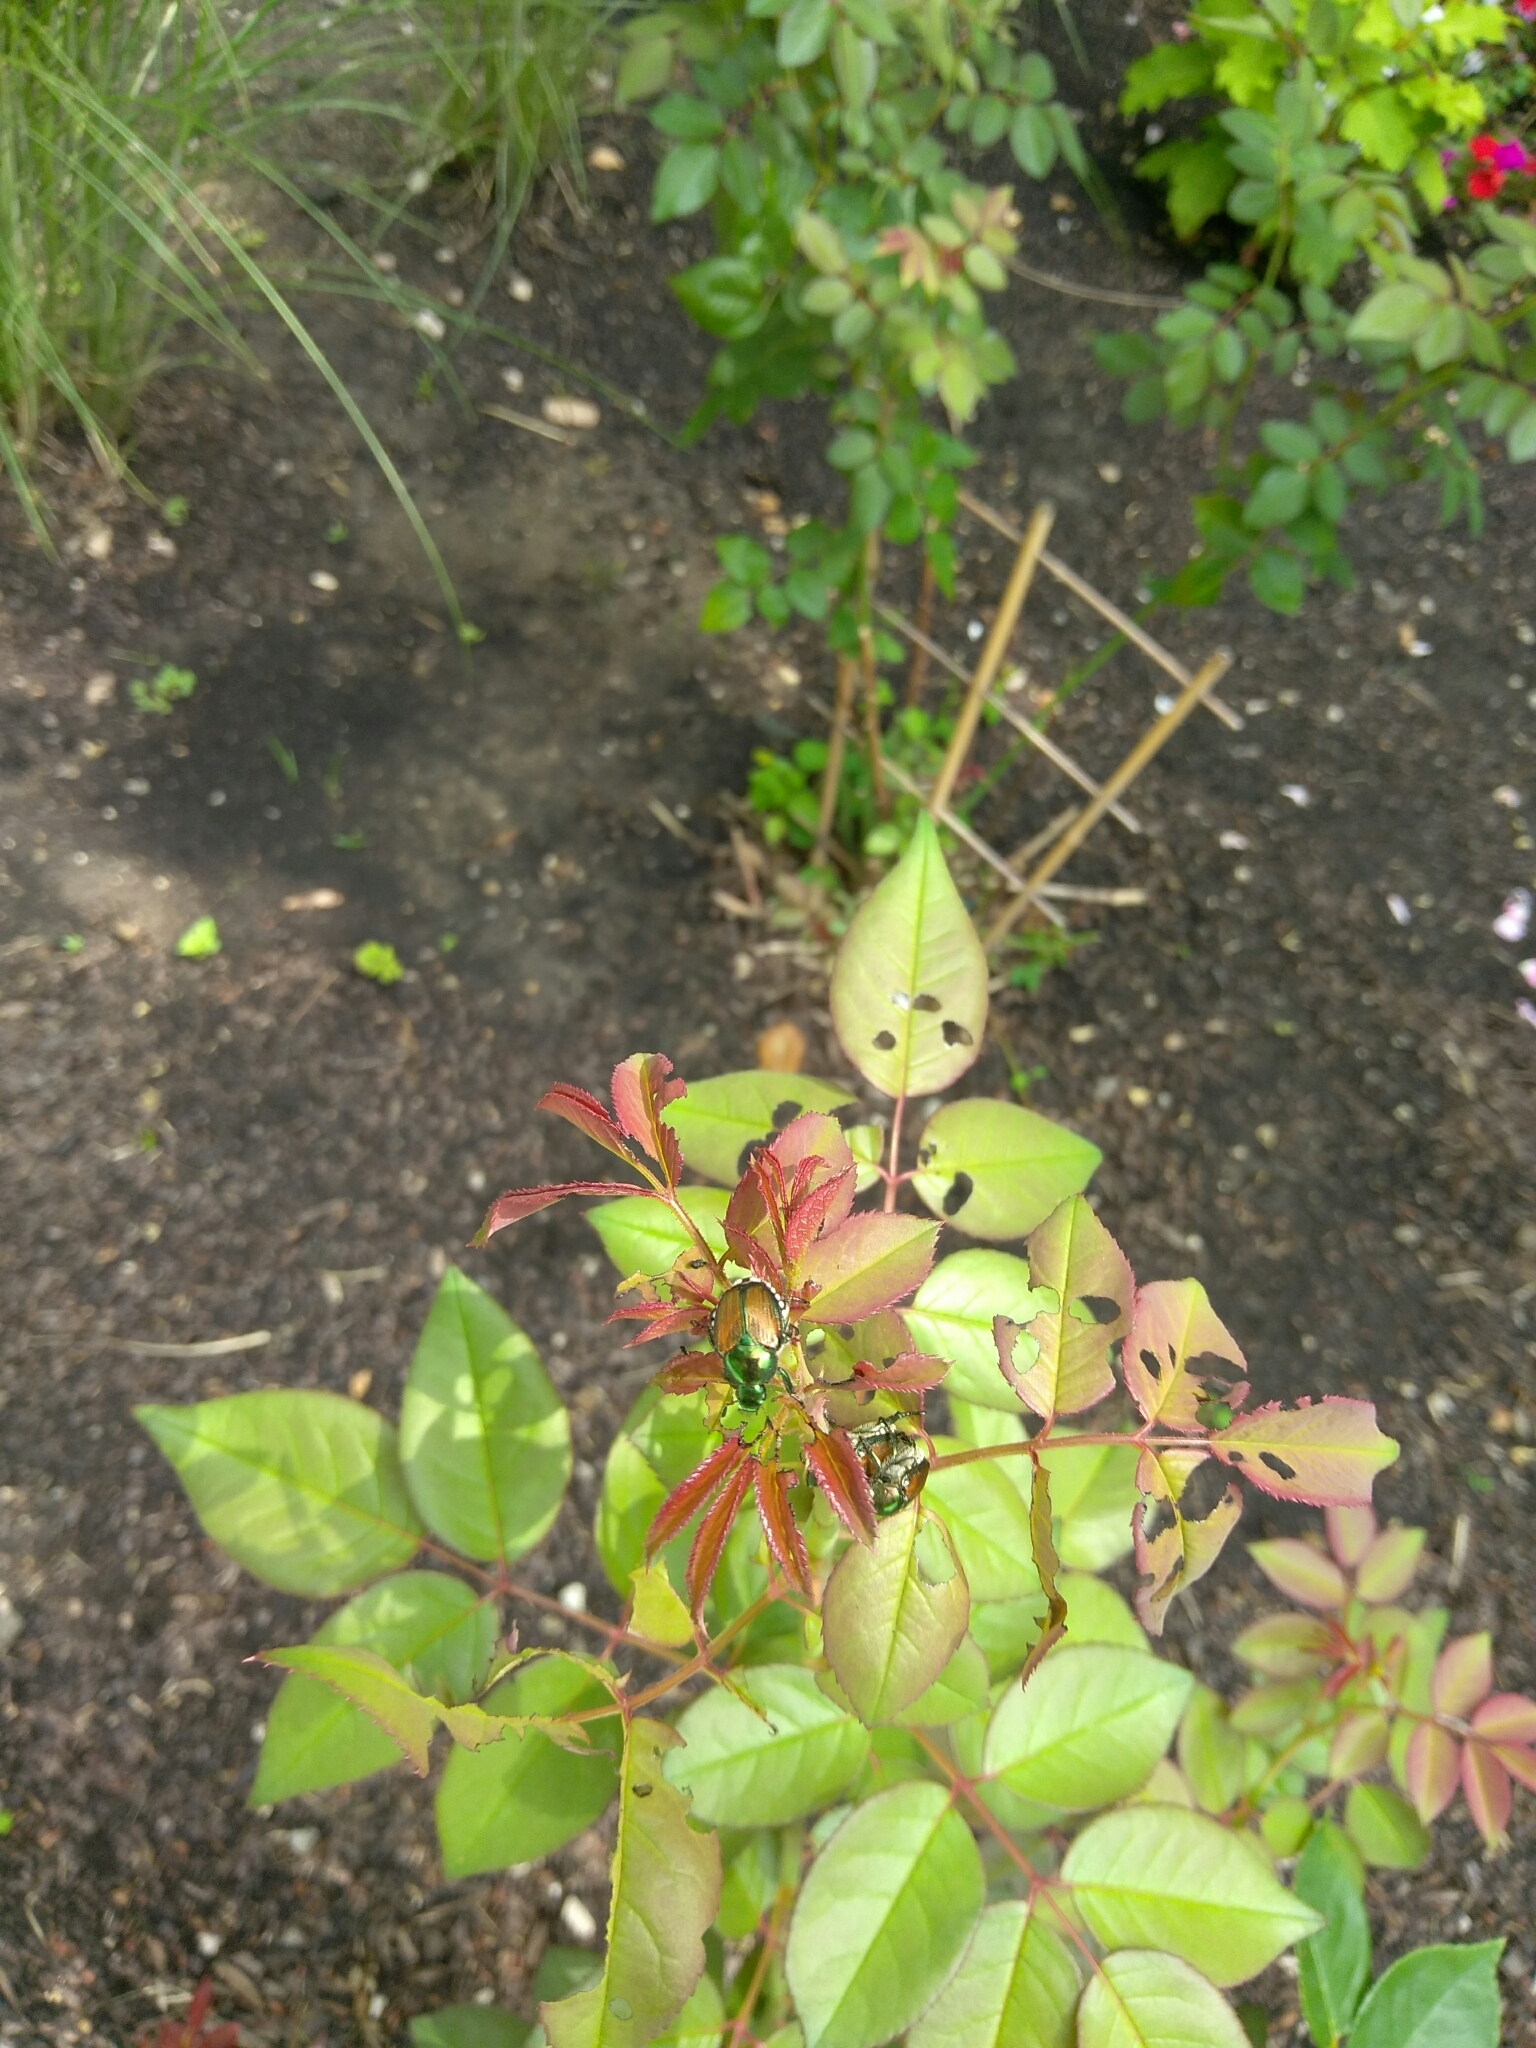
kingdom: Animalia
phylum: Arthropoda
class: Insecta
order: Coleoptera
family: Scarabaeidae
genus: Popillia
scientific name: Popillia japonica
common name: Japanese beetle
